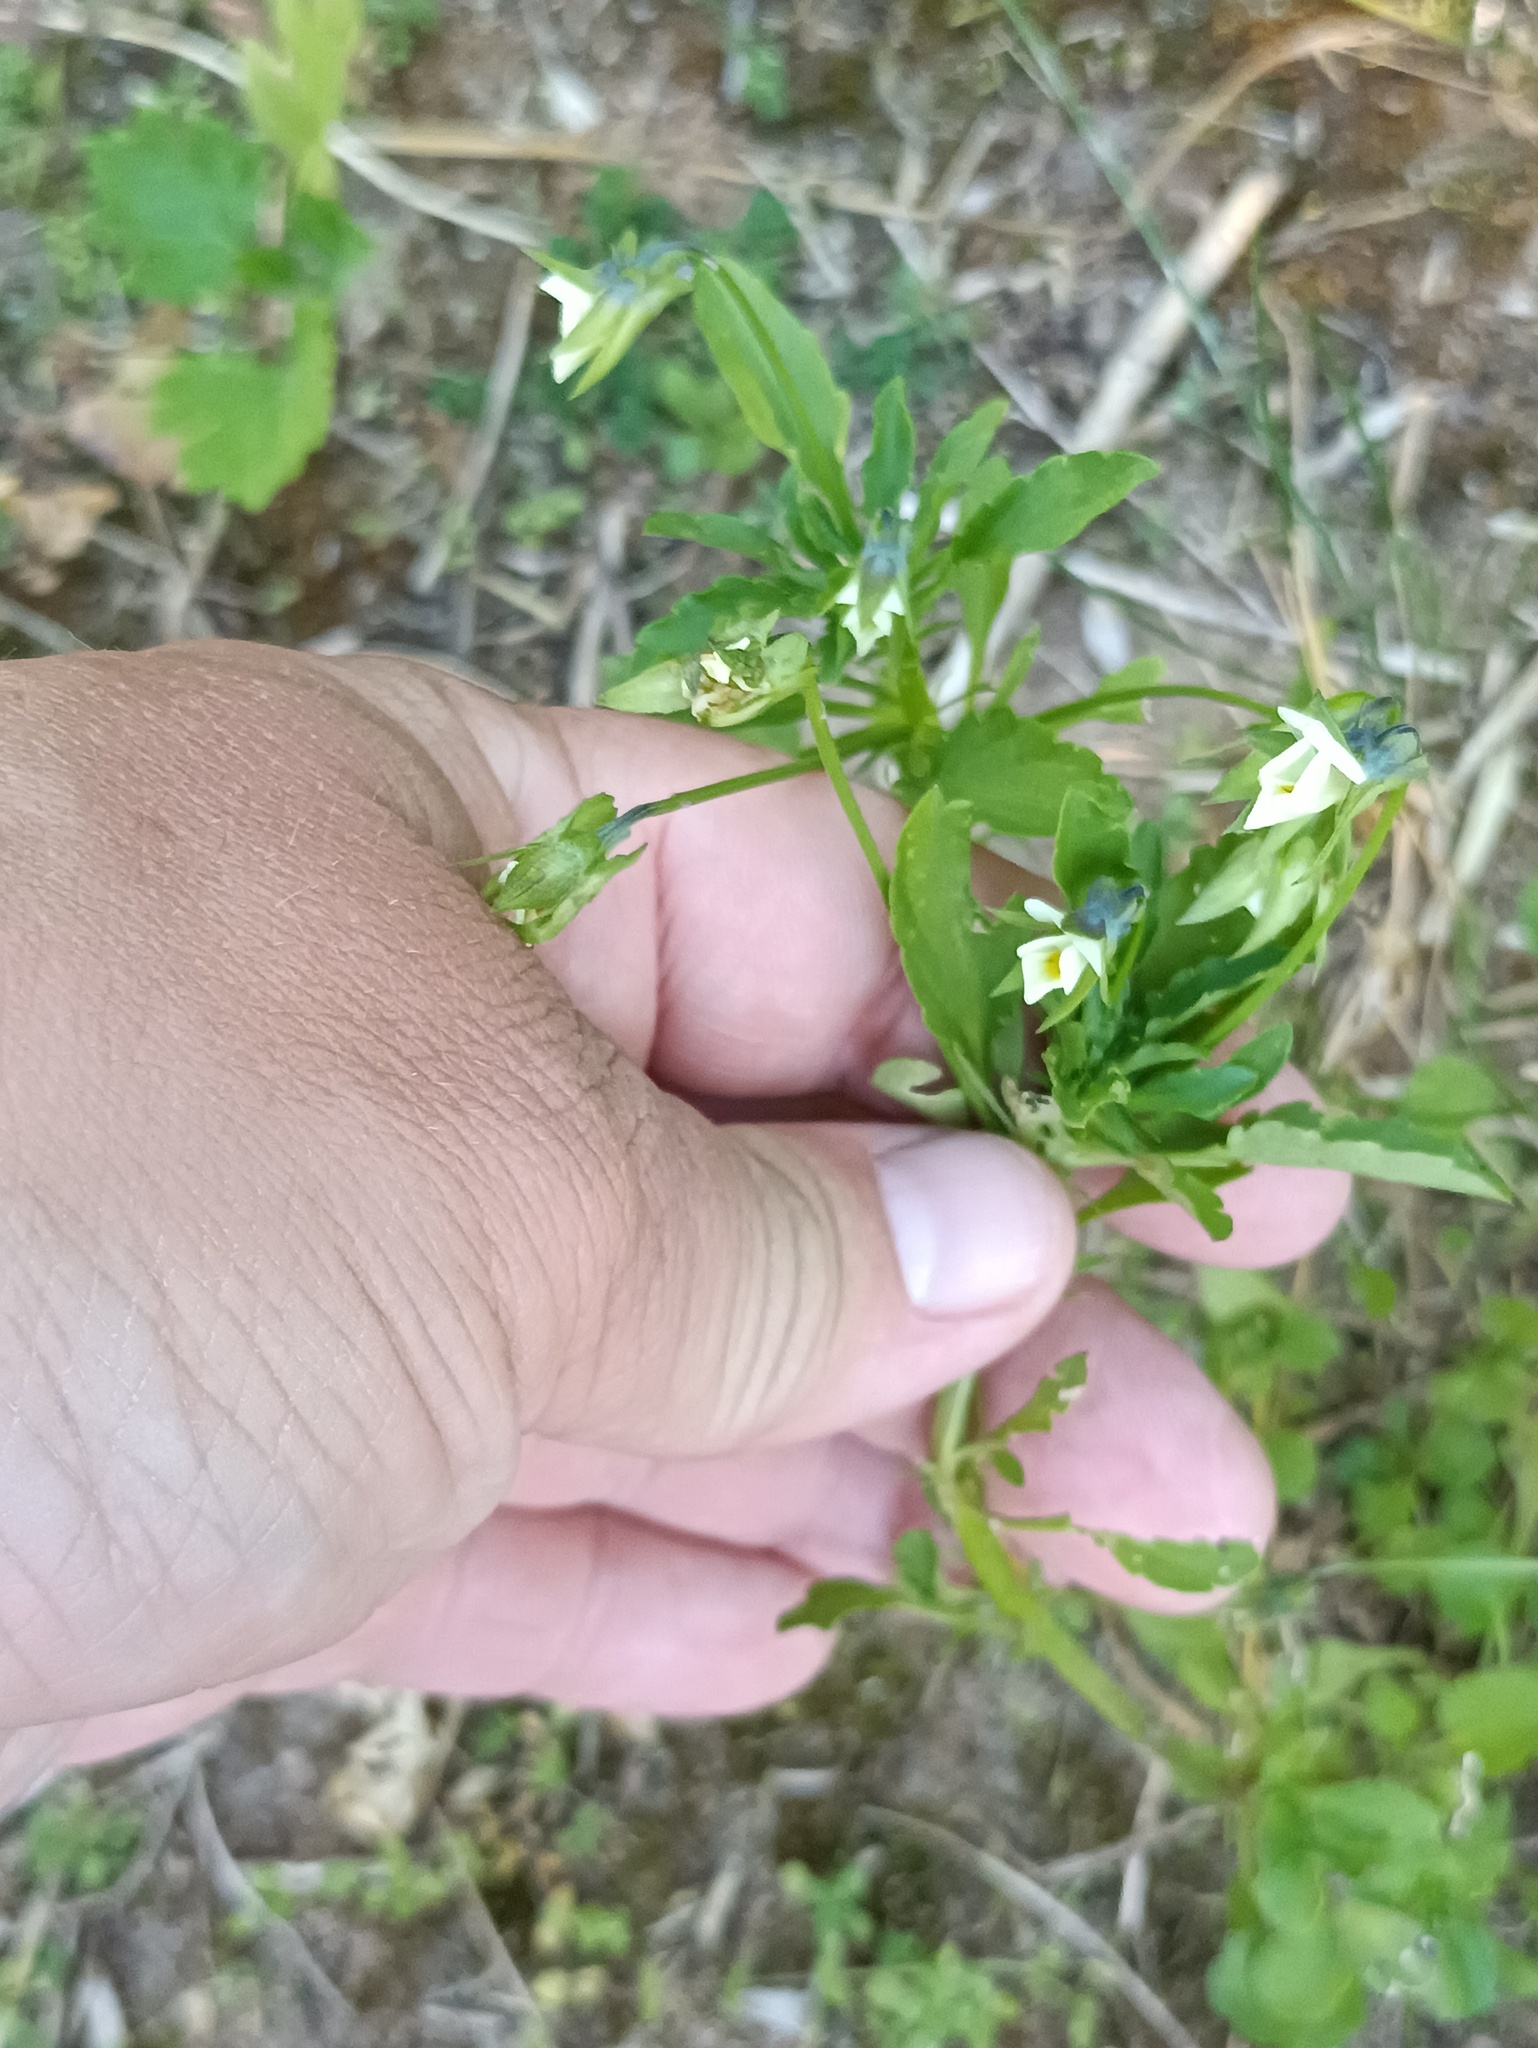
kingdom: Plantae
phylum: Tracheophyta
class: Magnoliopsida
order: Malpighiales
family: Violaceae
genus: Viola
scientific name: Viola arvensis
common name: Field pansy
